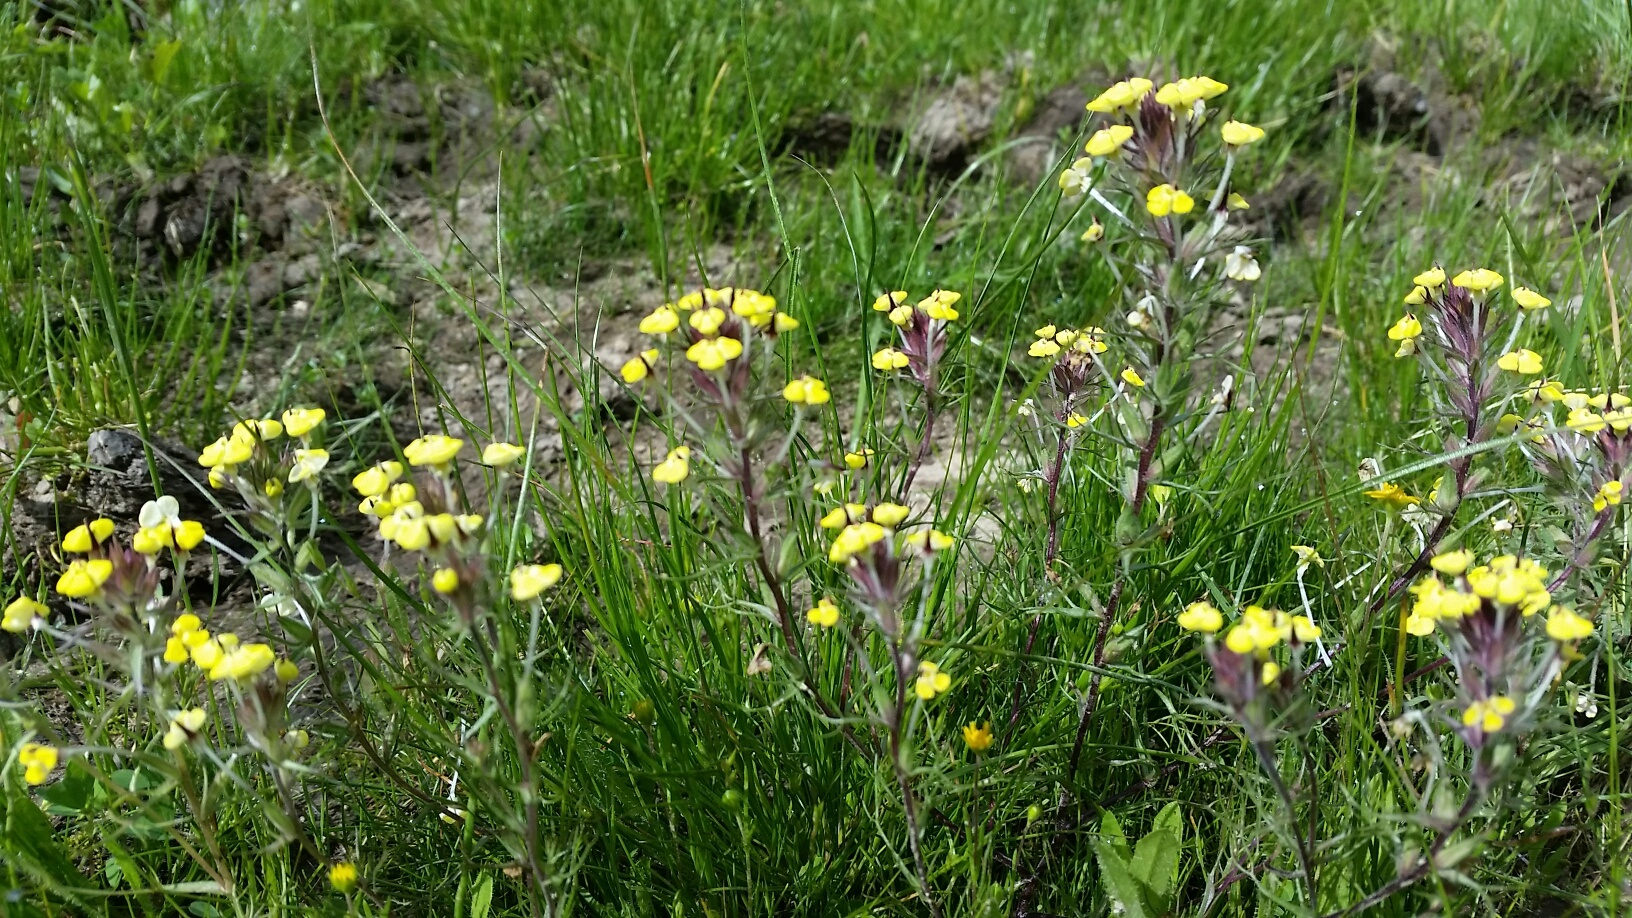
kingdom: Plantae
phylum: Tracheophyta
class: Magnoliopsida
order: Lamiales
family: Orobanchaceae
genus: Triphysaria
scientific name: Triphysaria eriantha
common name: Johnny-tuck
